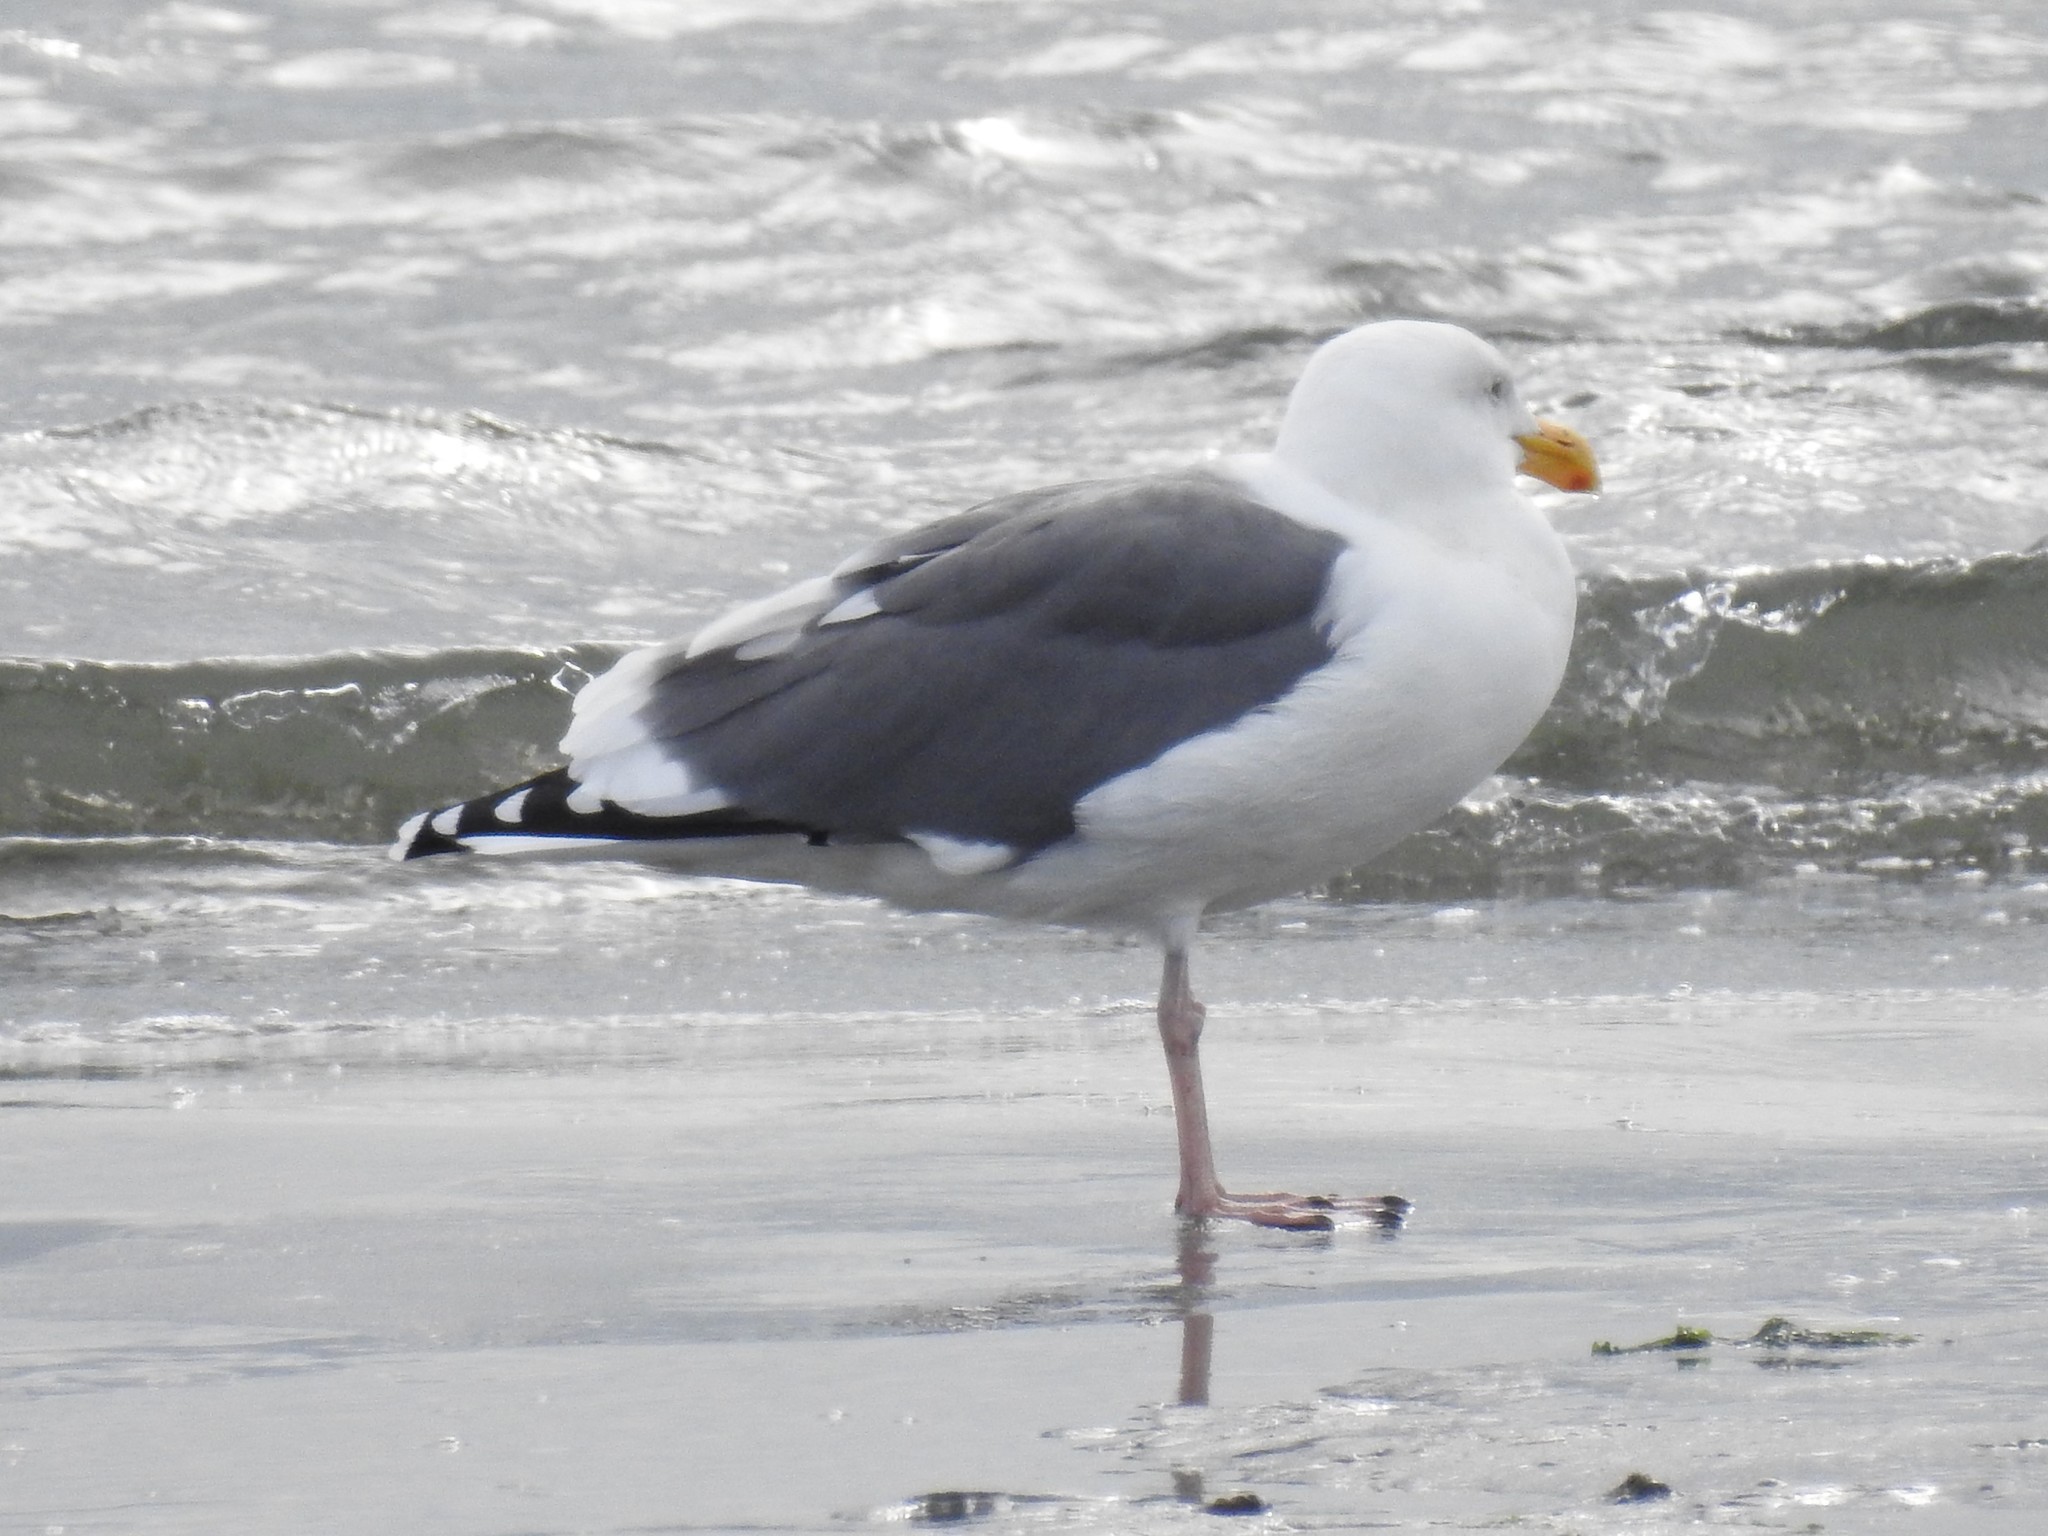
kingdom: Animalia
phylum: Chordata
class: Aves
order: Charadriiformes
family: Laridae
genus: Larus
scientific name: Larus occidentalis
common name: Western gull
